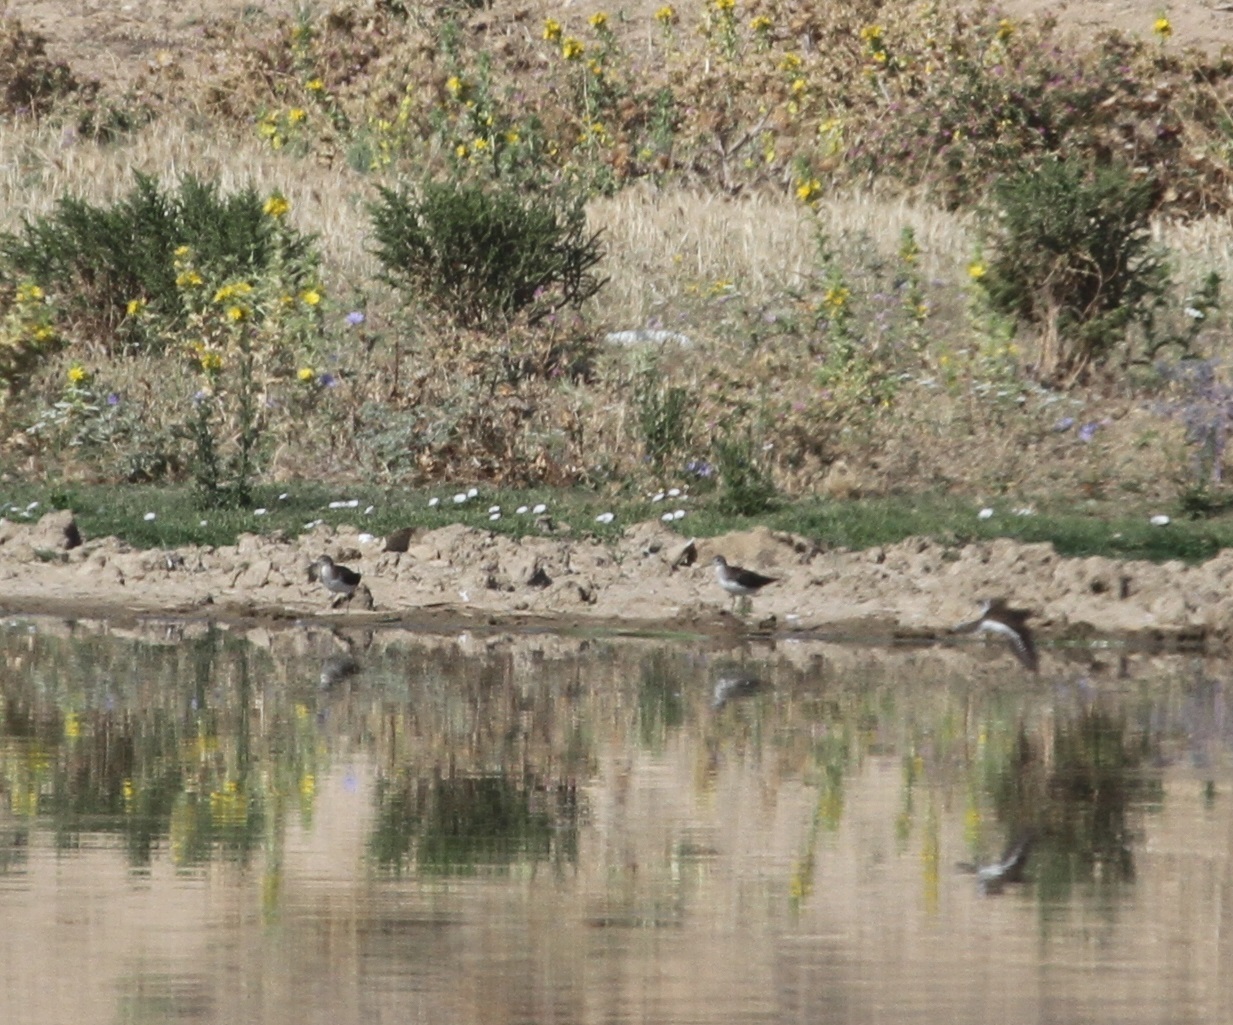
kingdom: Animalia
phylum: Chordata
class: Aves
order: Charadriiformes
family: Scolopacidae
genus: Actitis
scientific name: Actitis hypoleucos
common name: Common sandpiper
